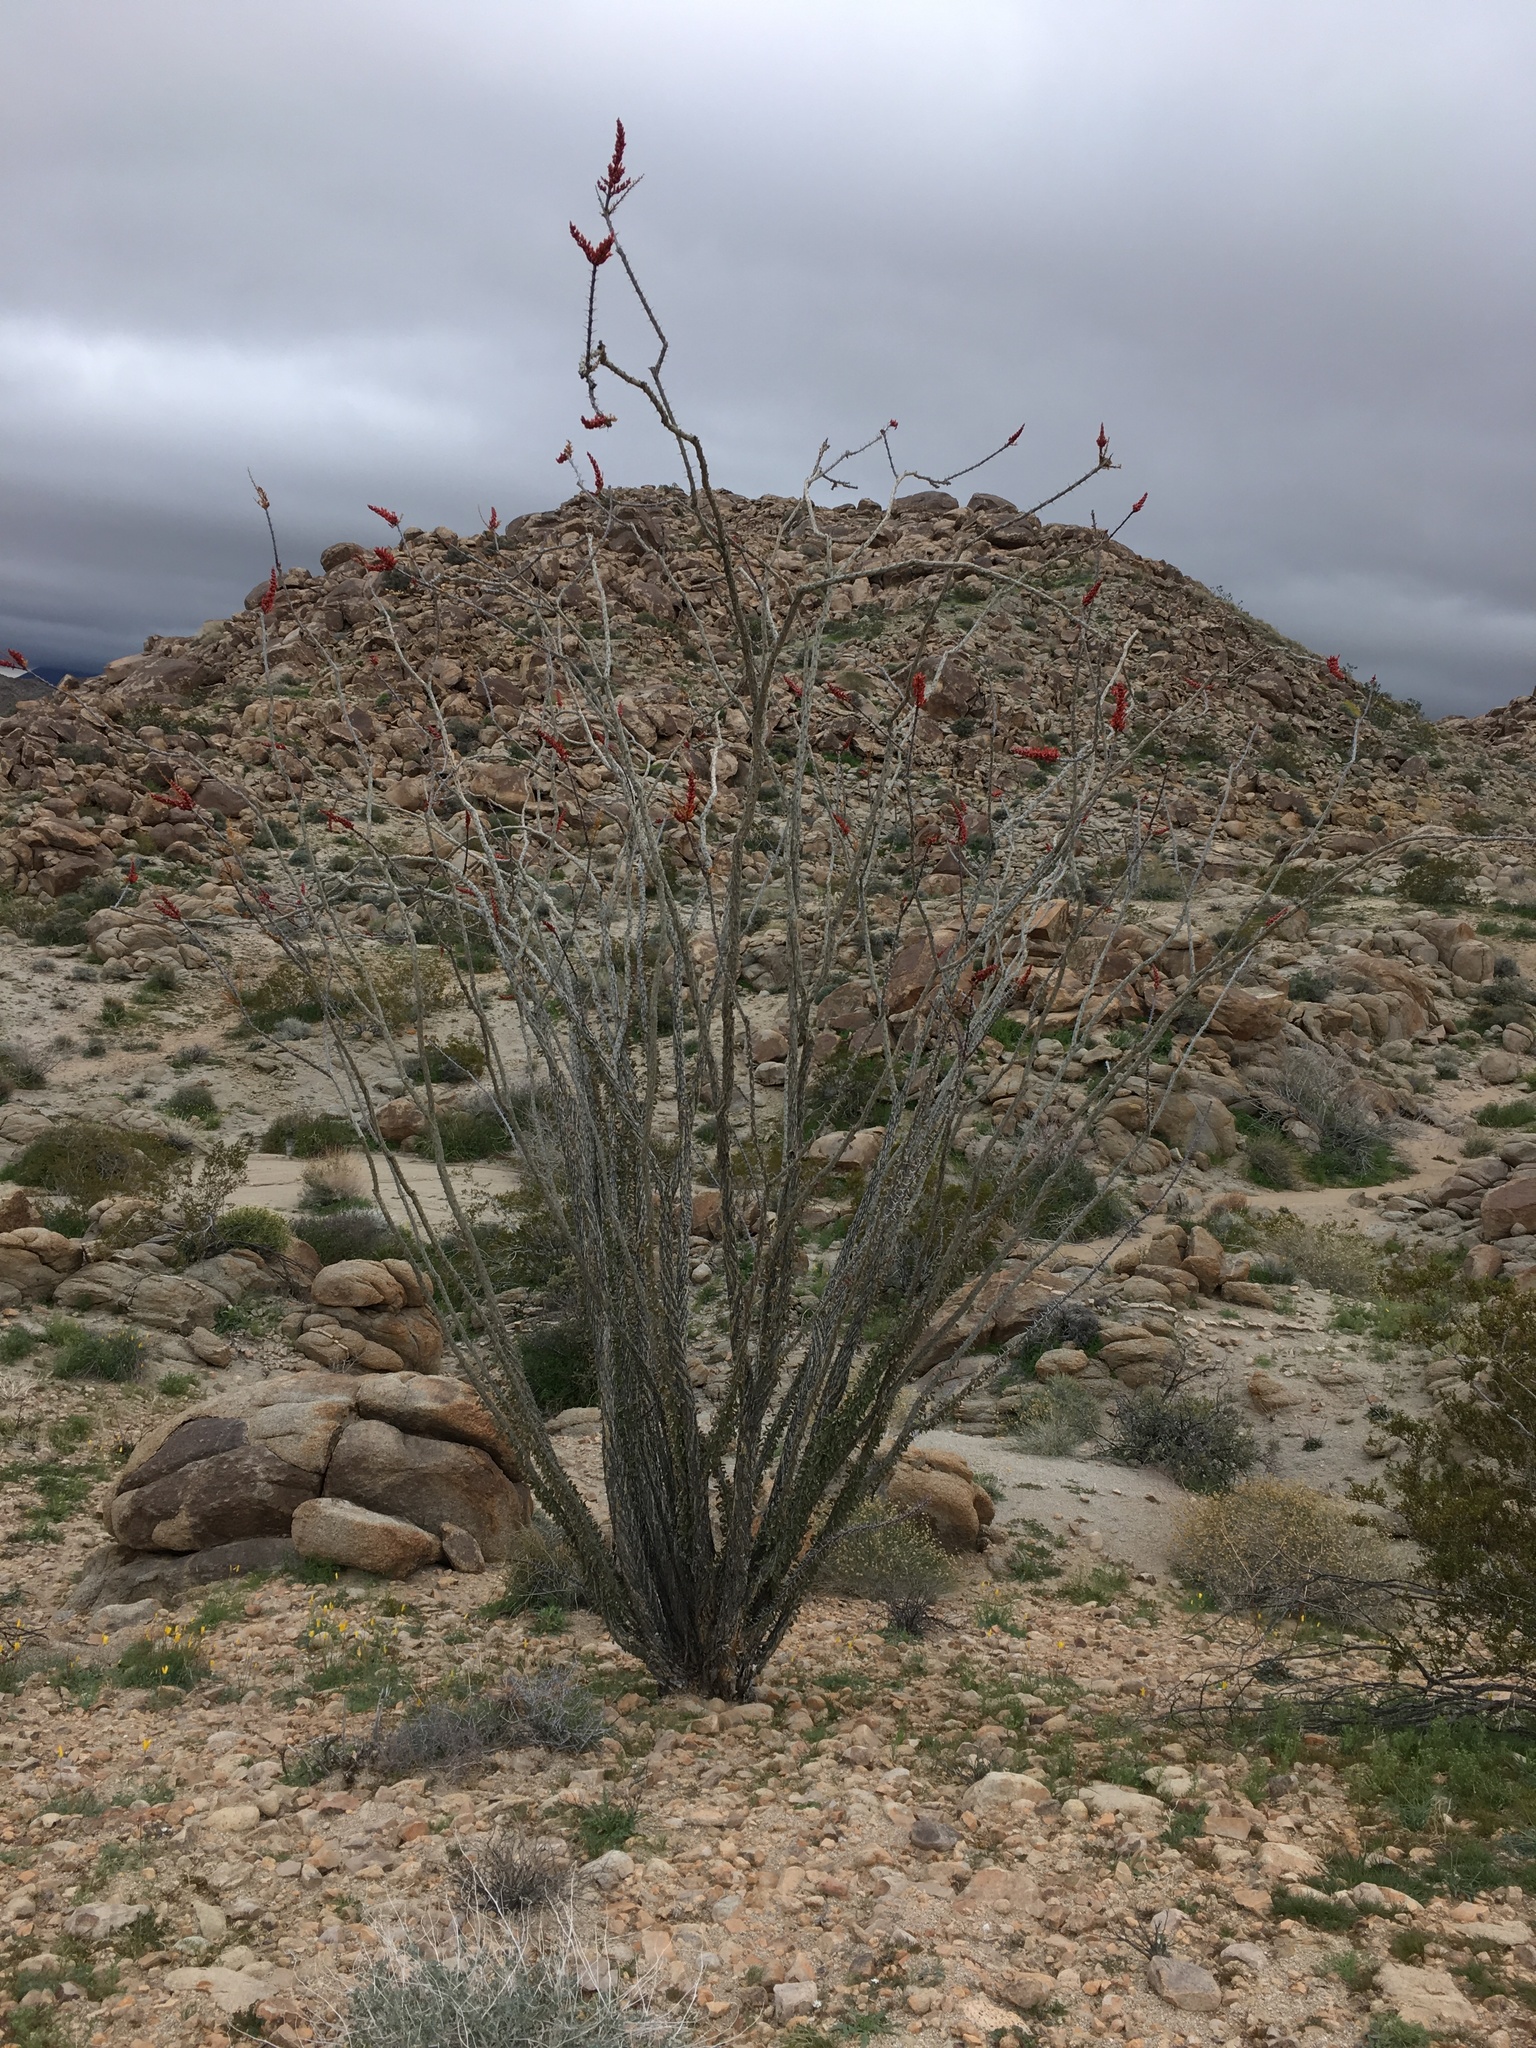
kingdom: Plantae
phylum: Tracheophyta
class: Magnoliopsida
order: Ericales
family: Fouquieriaceae
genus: Fouquieria
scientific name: Fouquieria splendens
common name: Vine-cactus
